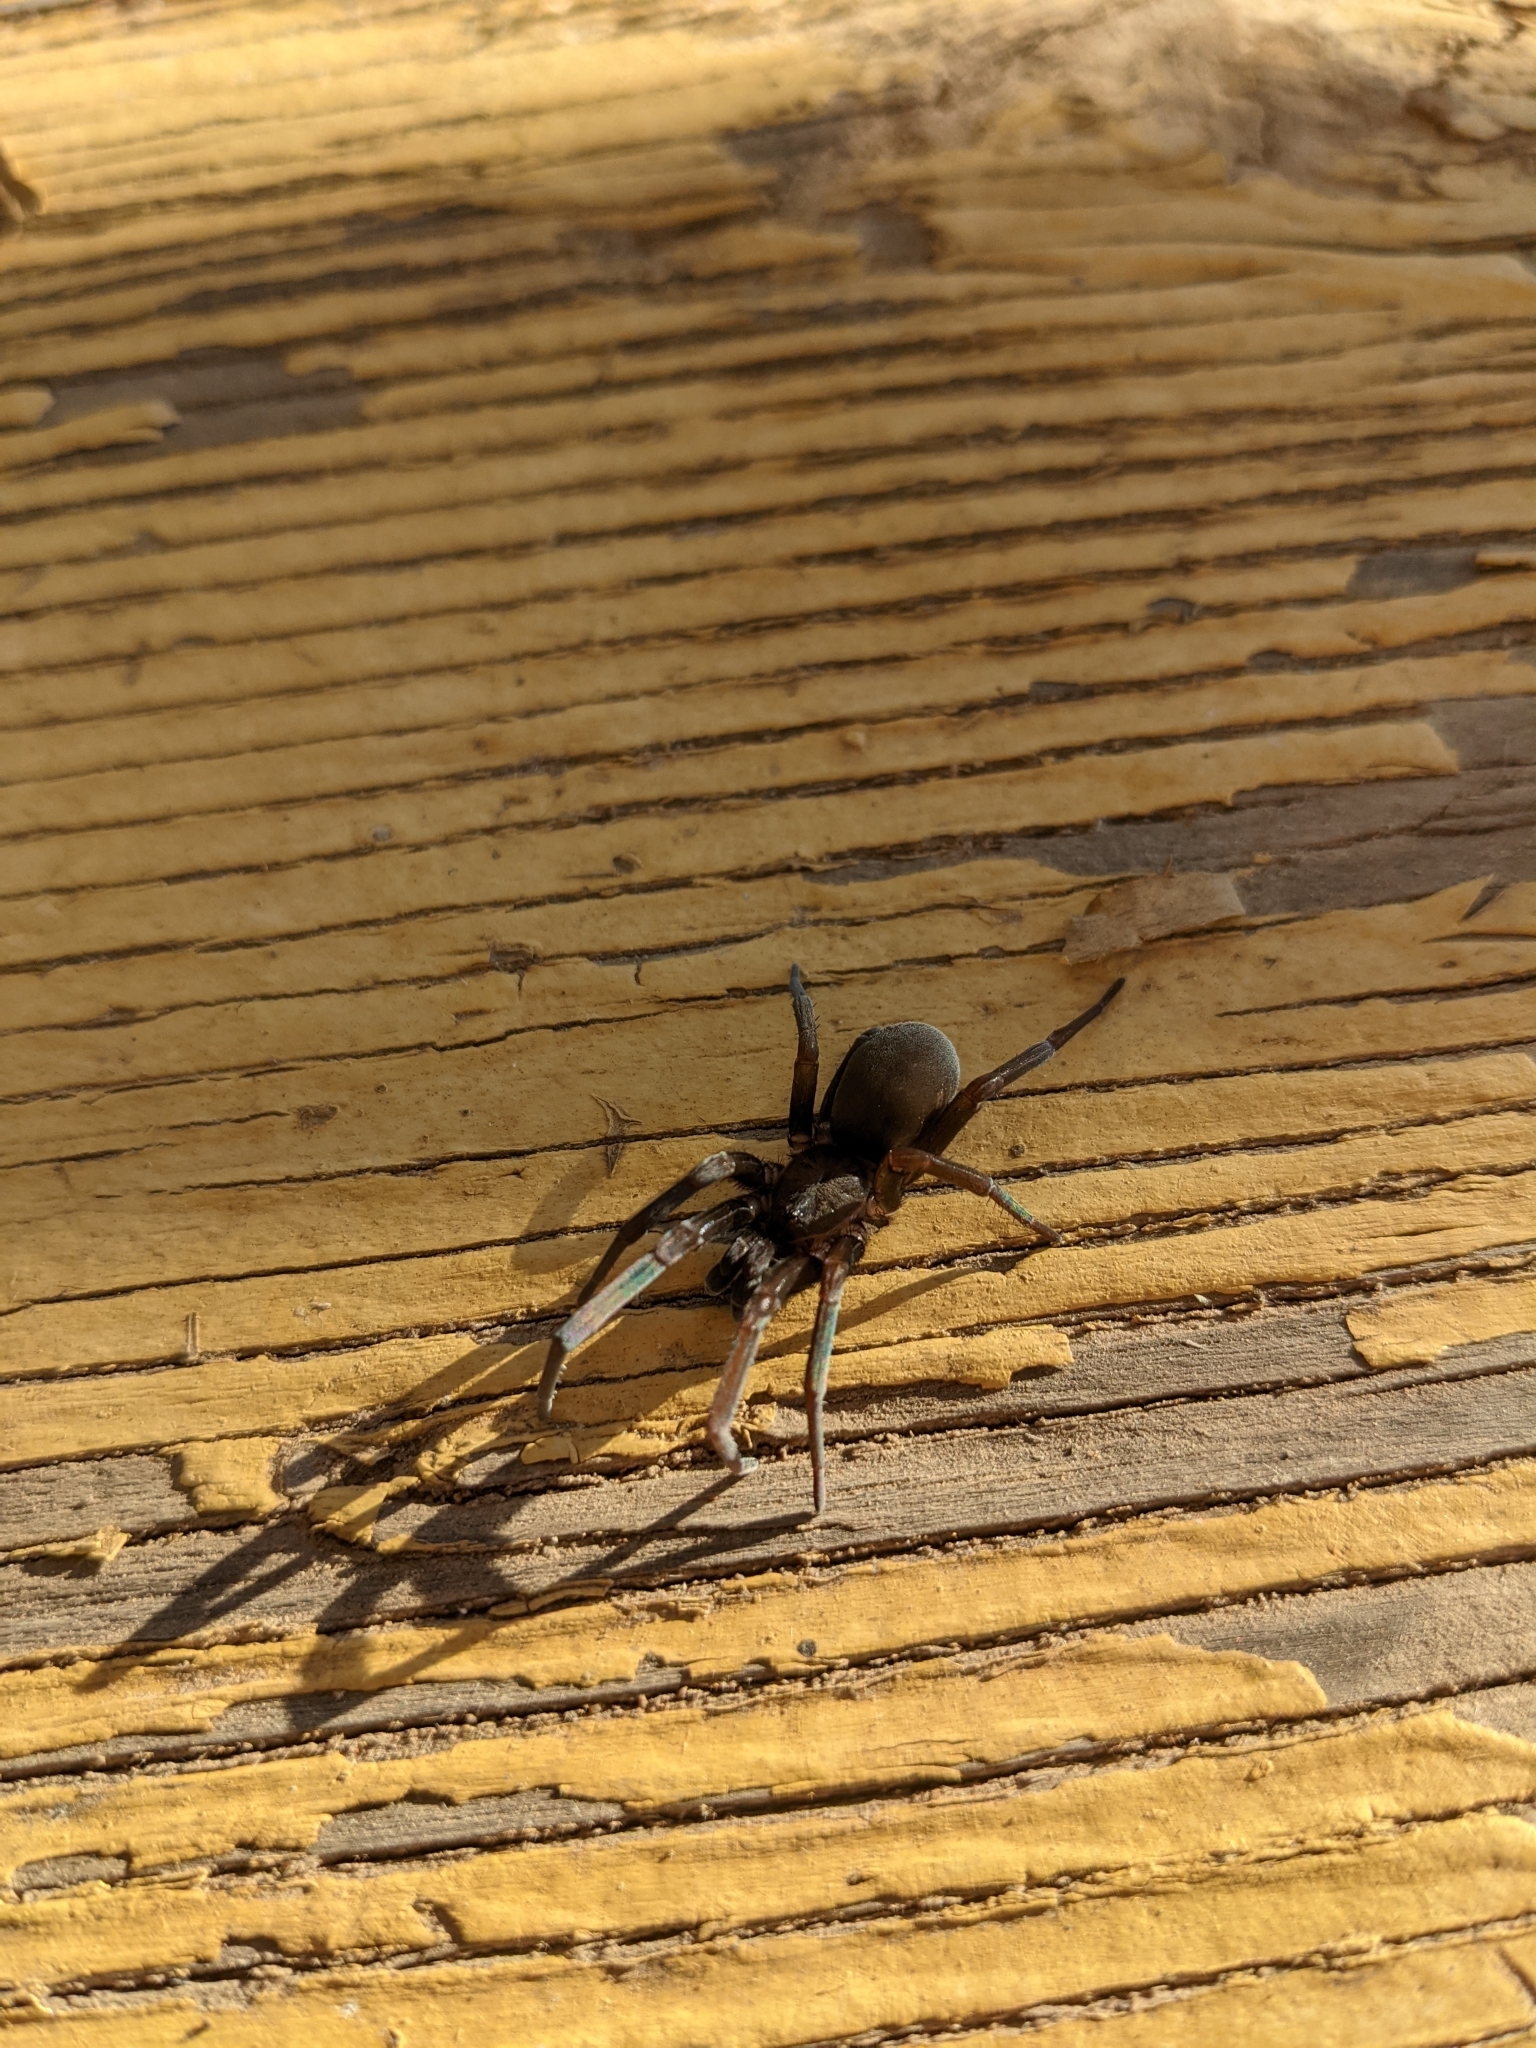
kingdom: Animalia
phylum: Arthropoda
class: Arachnida
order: Araneae
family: Filistatidae
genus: Kukulcania
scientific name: Kukulcania hibernalis
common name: Crevice weaver
